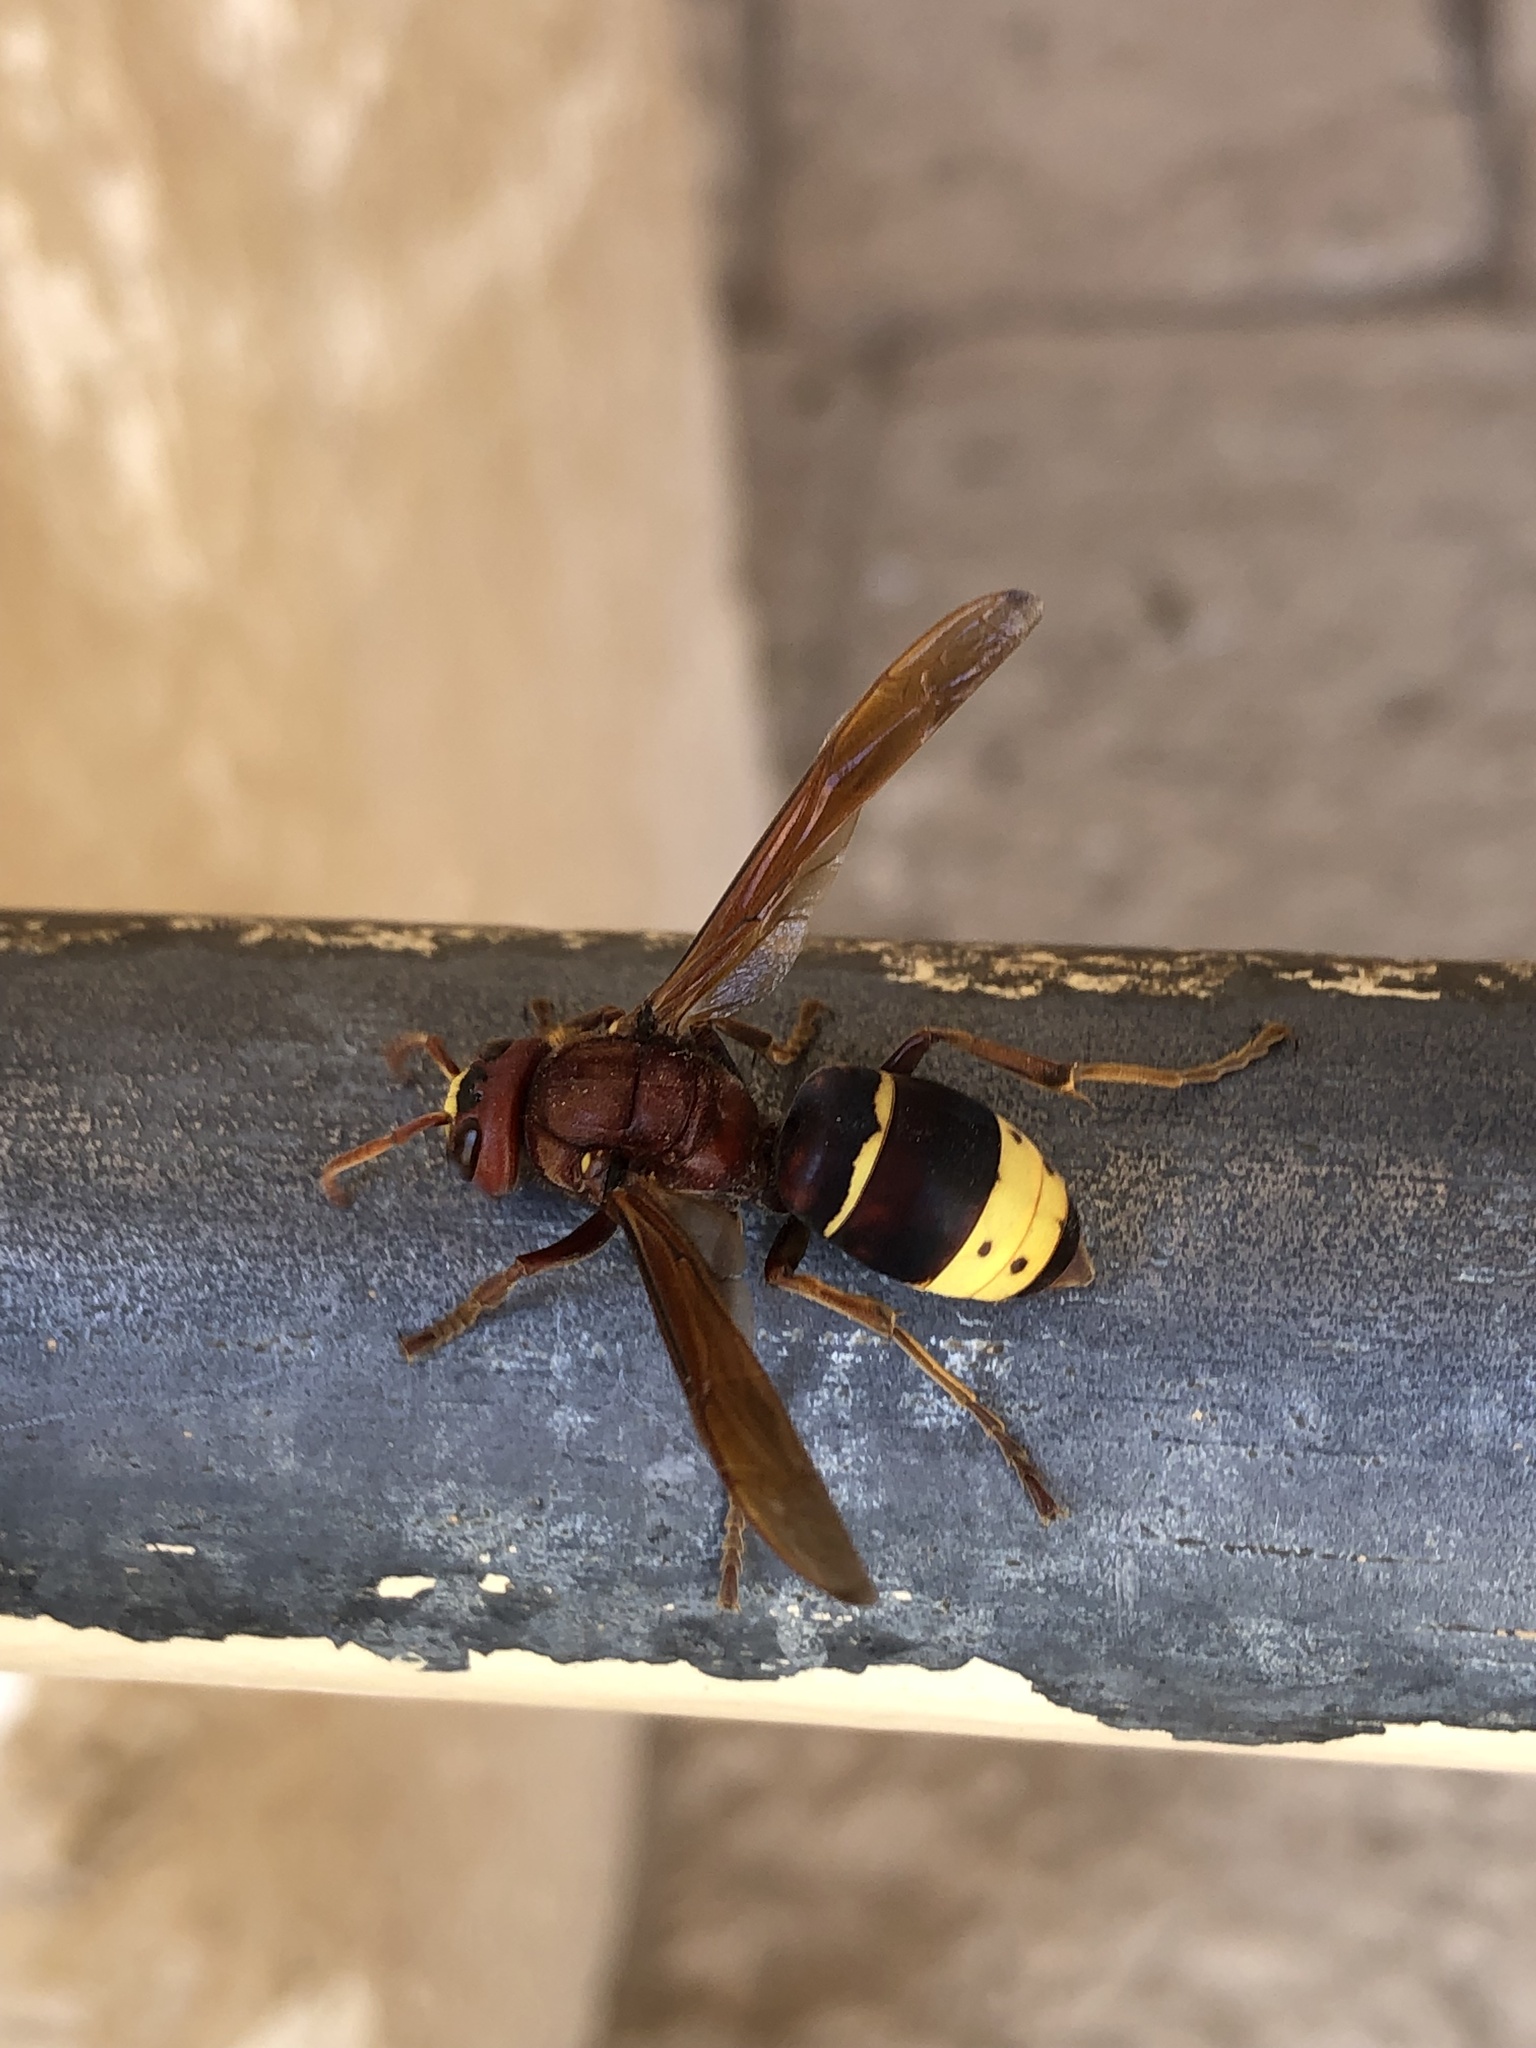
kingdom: Animalia
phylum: Arthropoda
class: Insecta
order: Hymenoptera
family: Vespidae
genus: Vespa
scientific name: Vespa orientalis
